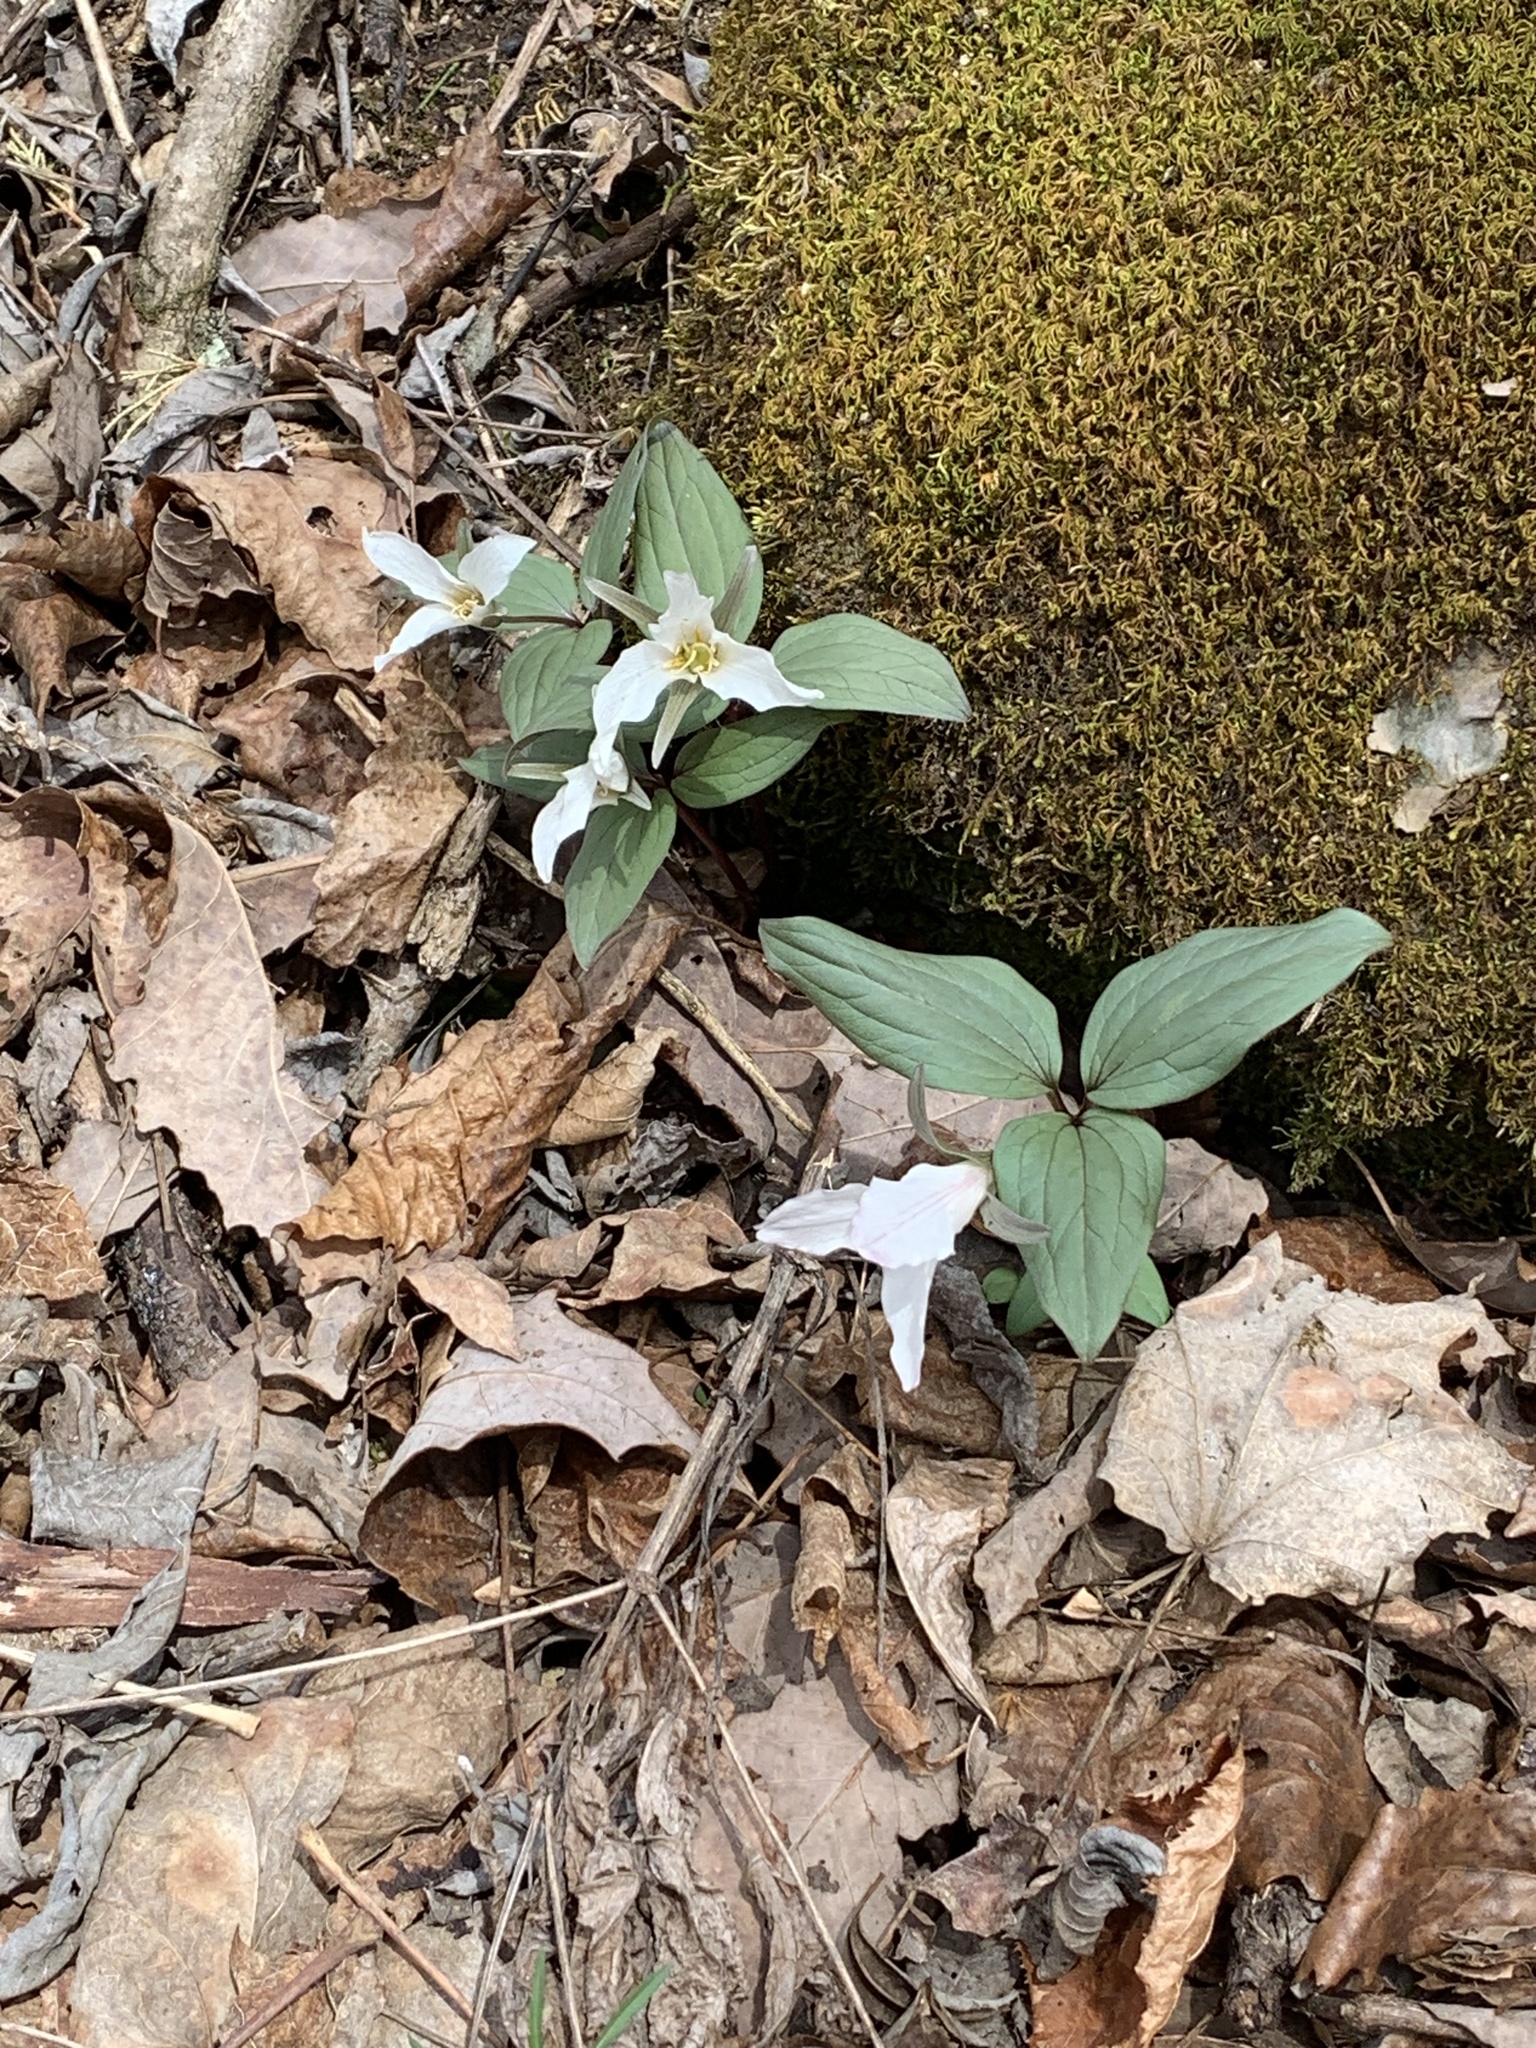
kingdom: Plantae
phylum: Tracheophyta
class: Liliopsida
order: Liliales
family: Melanthiaceae
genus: Trillium
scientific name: Trillium nivale
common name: Dwarf white trillium
